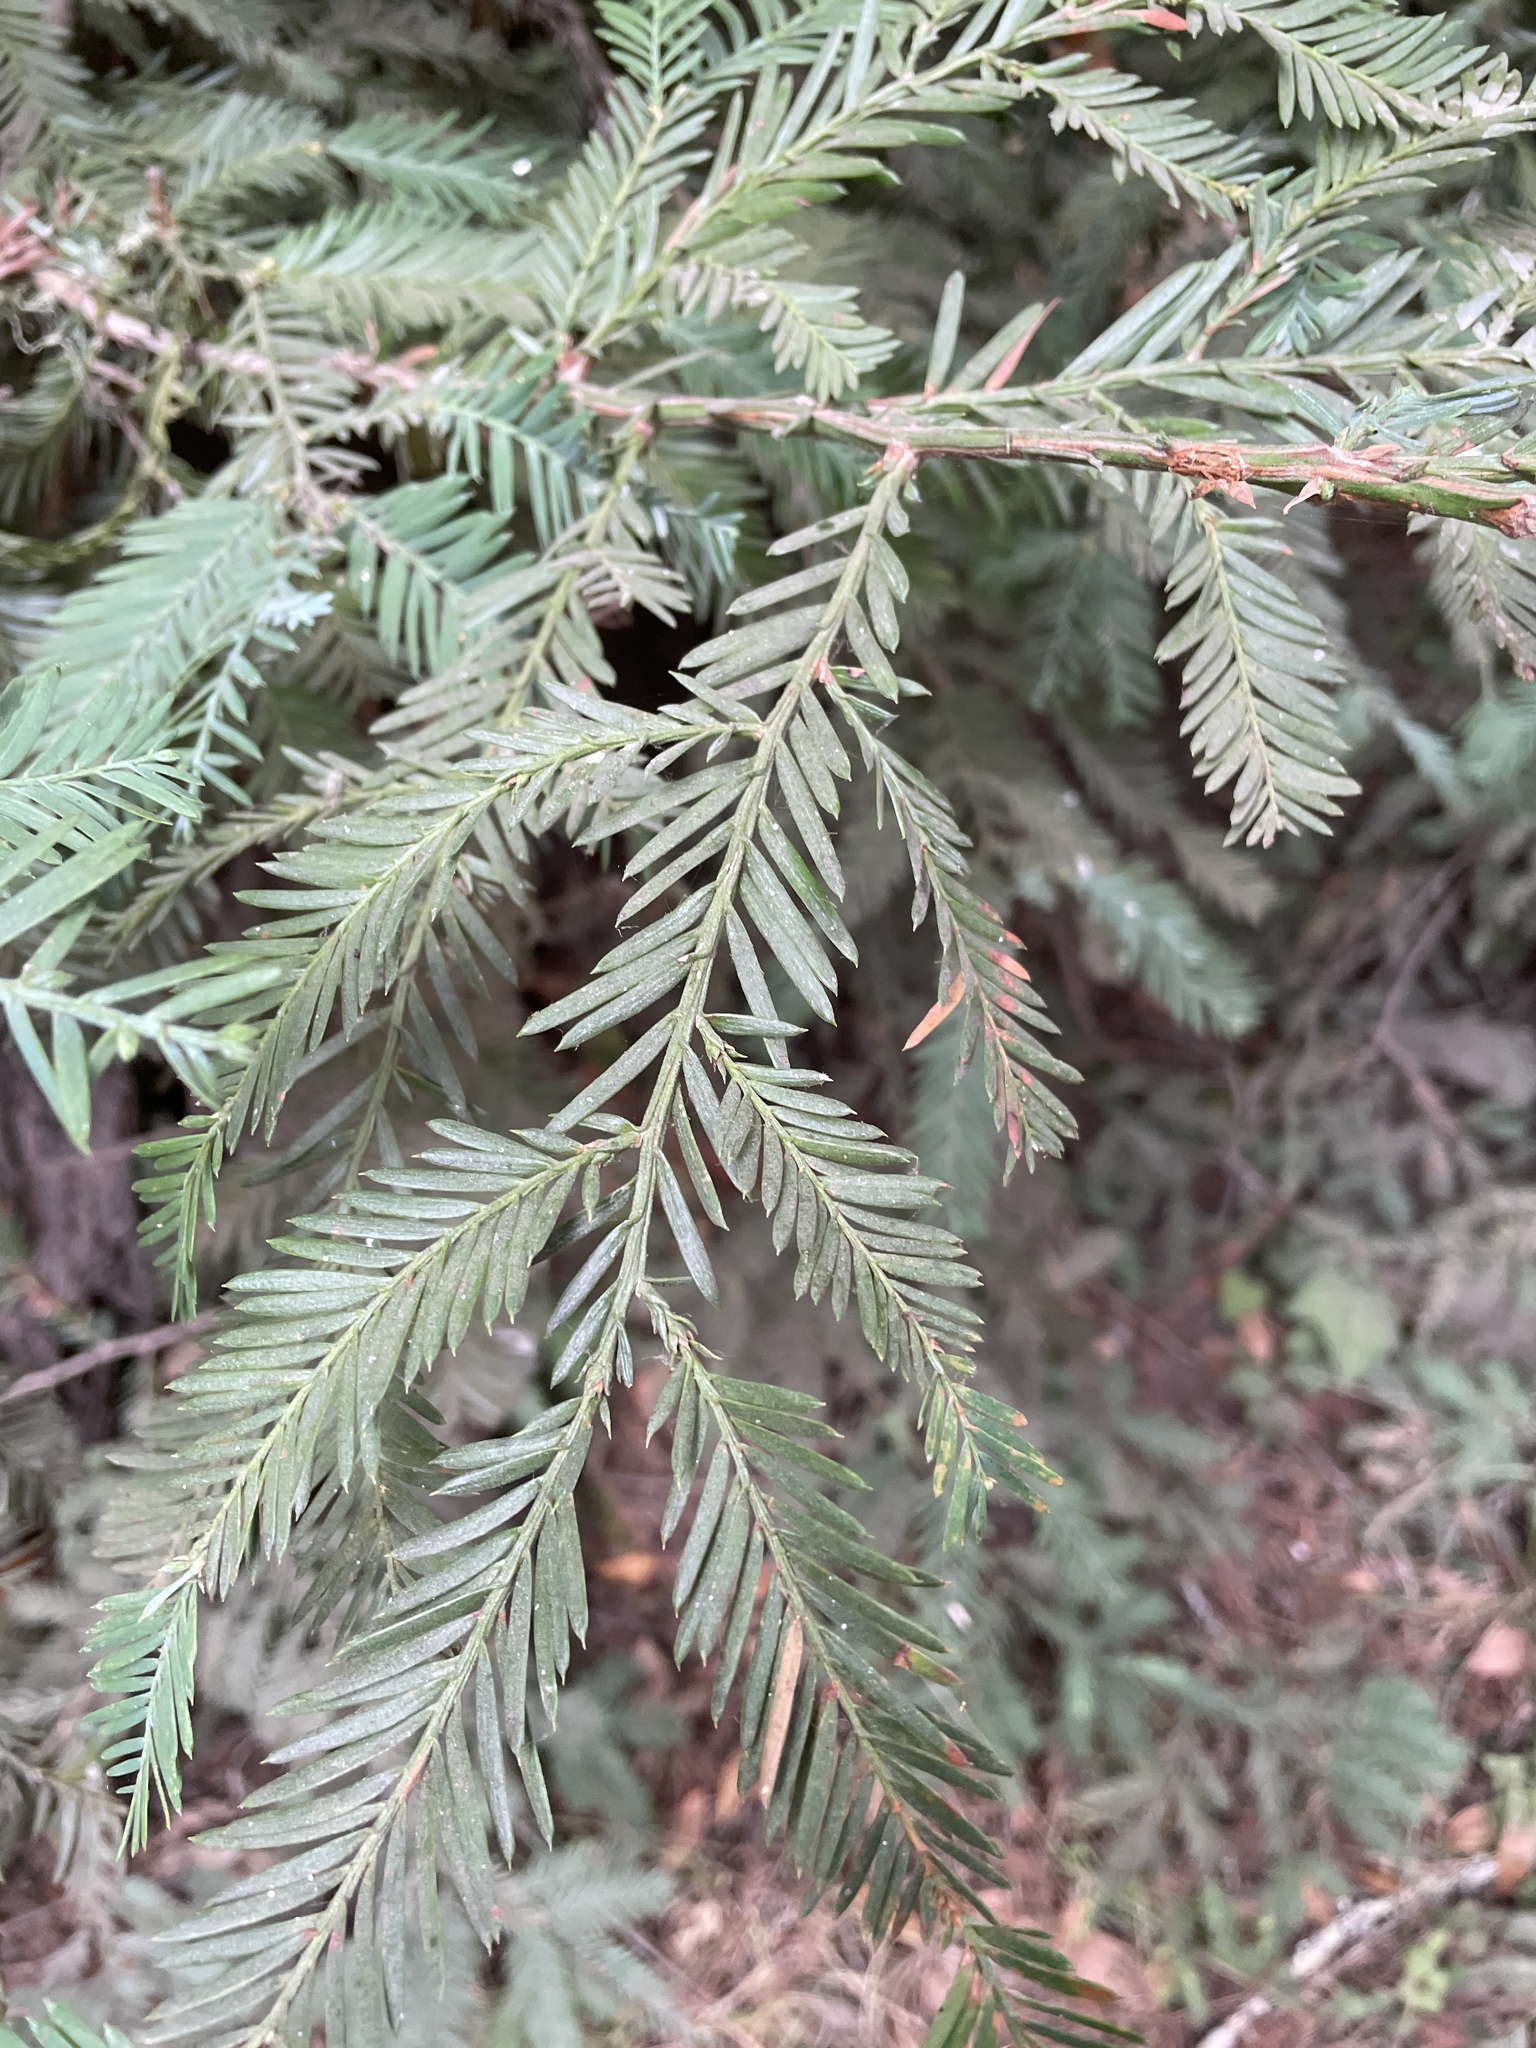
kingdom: Plantae
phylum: Tracheophyta
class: Pinopsida
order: Pinales
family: Cupressaceae
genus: Sequoia
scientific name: Sequoia sempervirens
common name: Coast redwood
